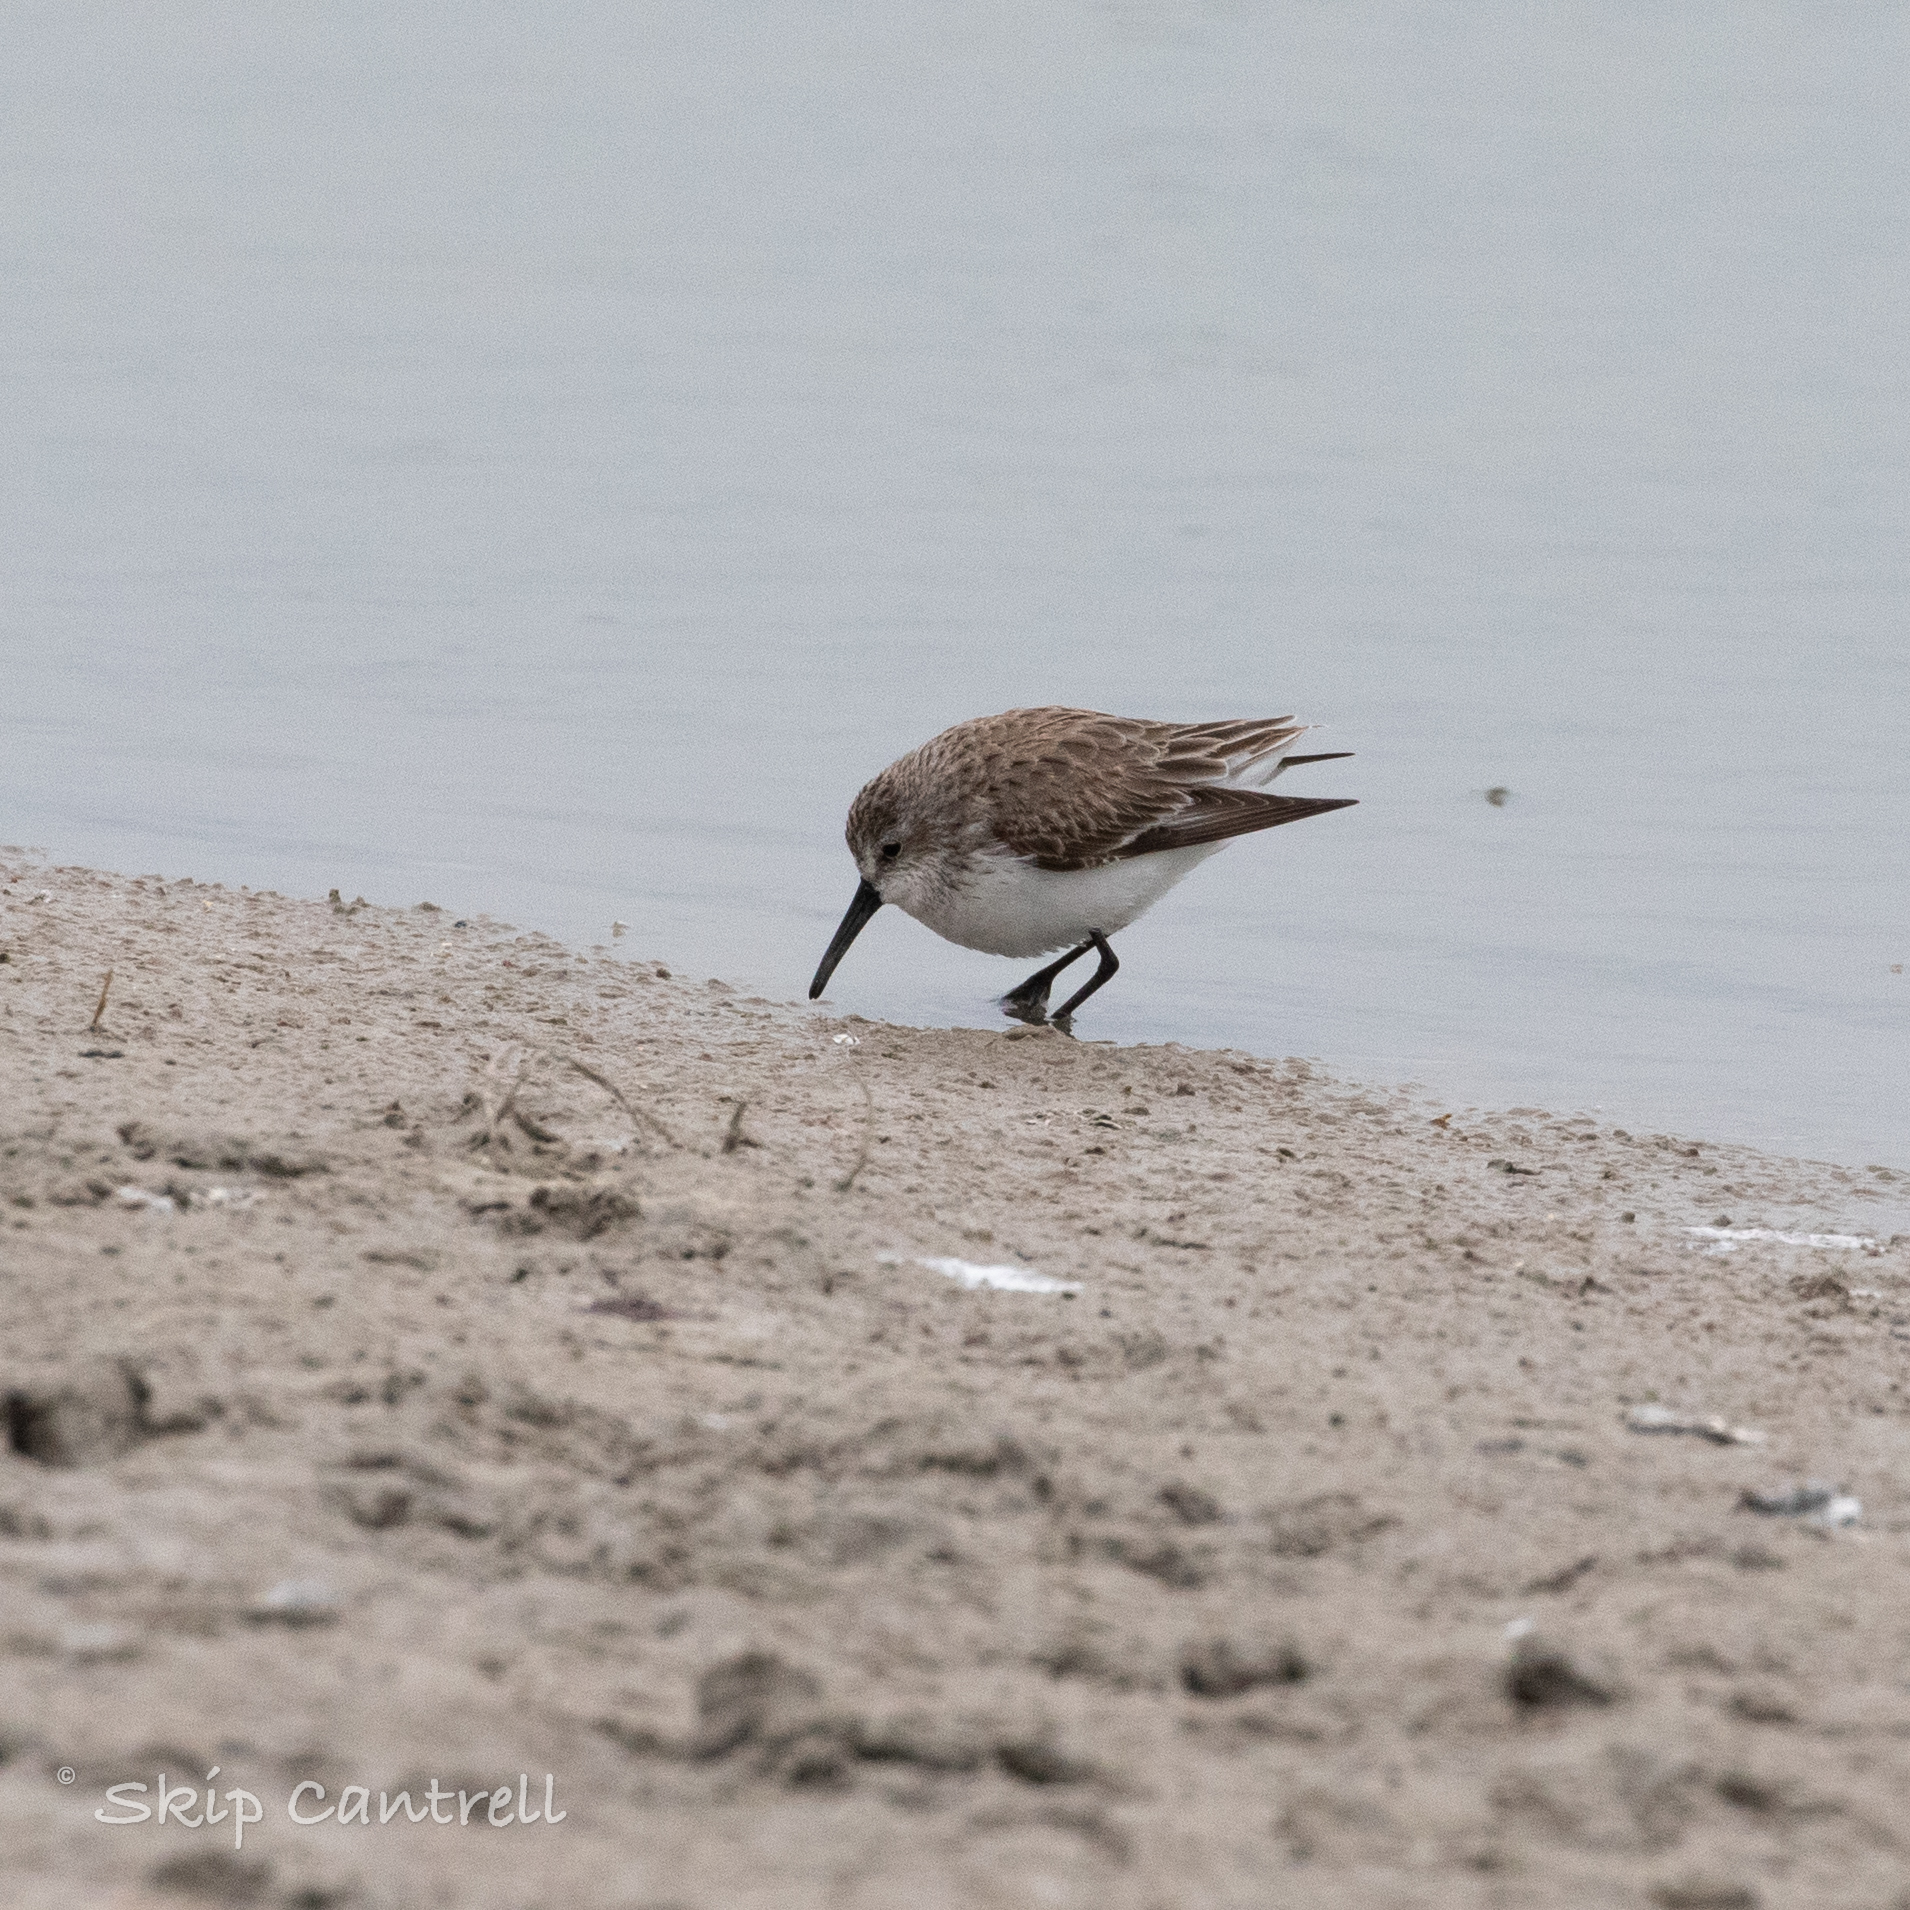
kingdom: Animalia
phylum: Chordata
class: Aves
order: Charadriiformes
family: Scolopacidae
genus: Calidris
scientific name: Calidris mauri
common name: Western sandpiper
